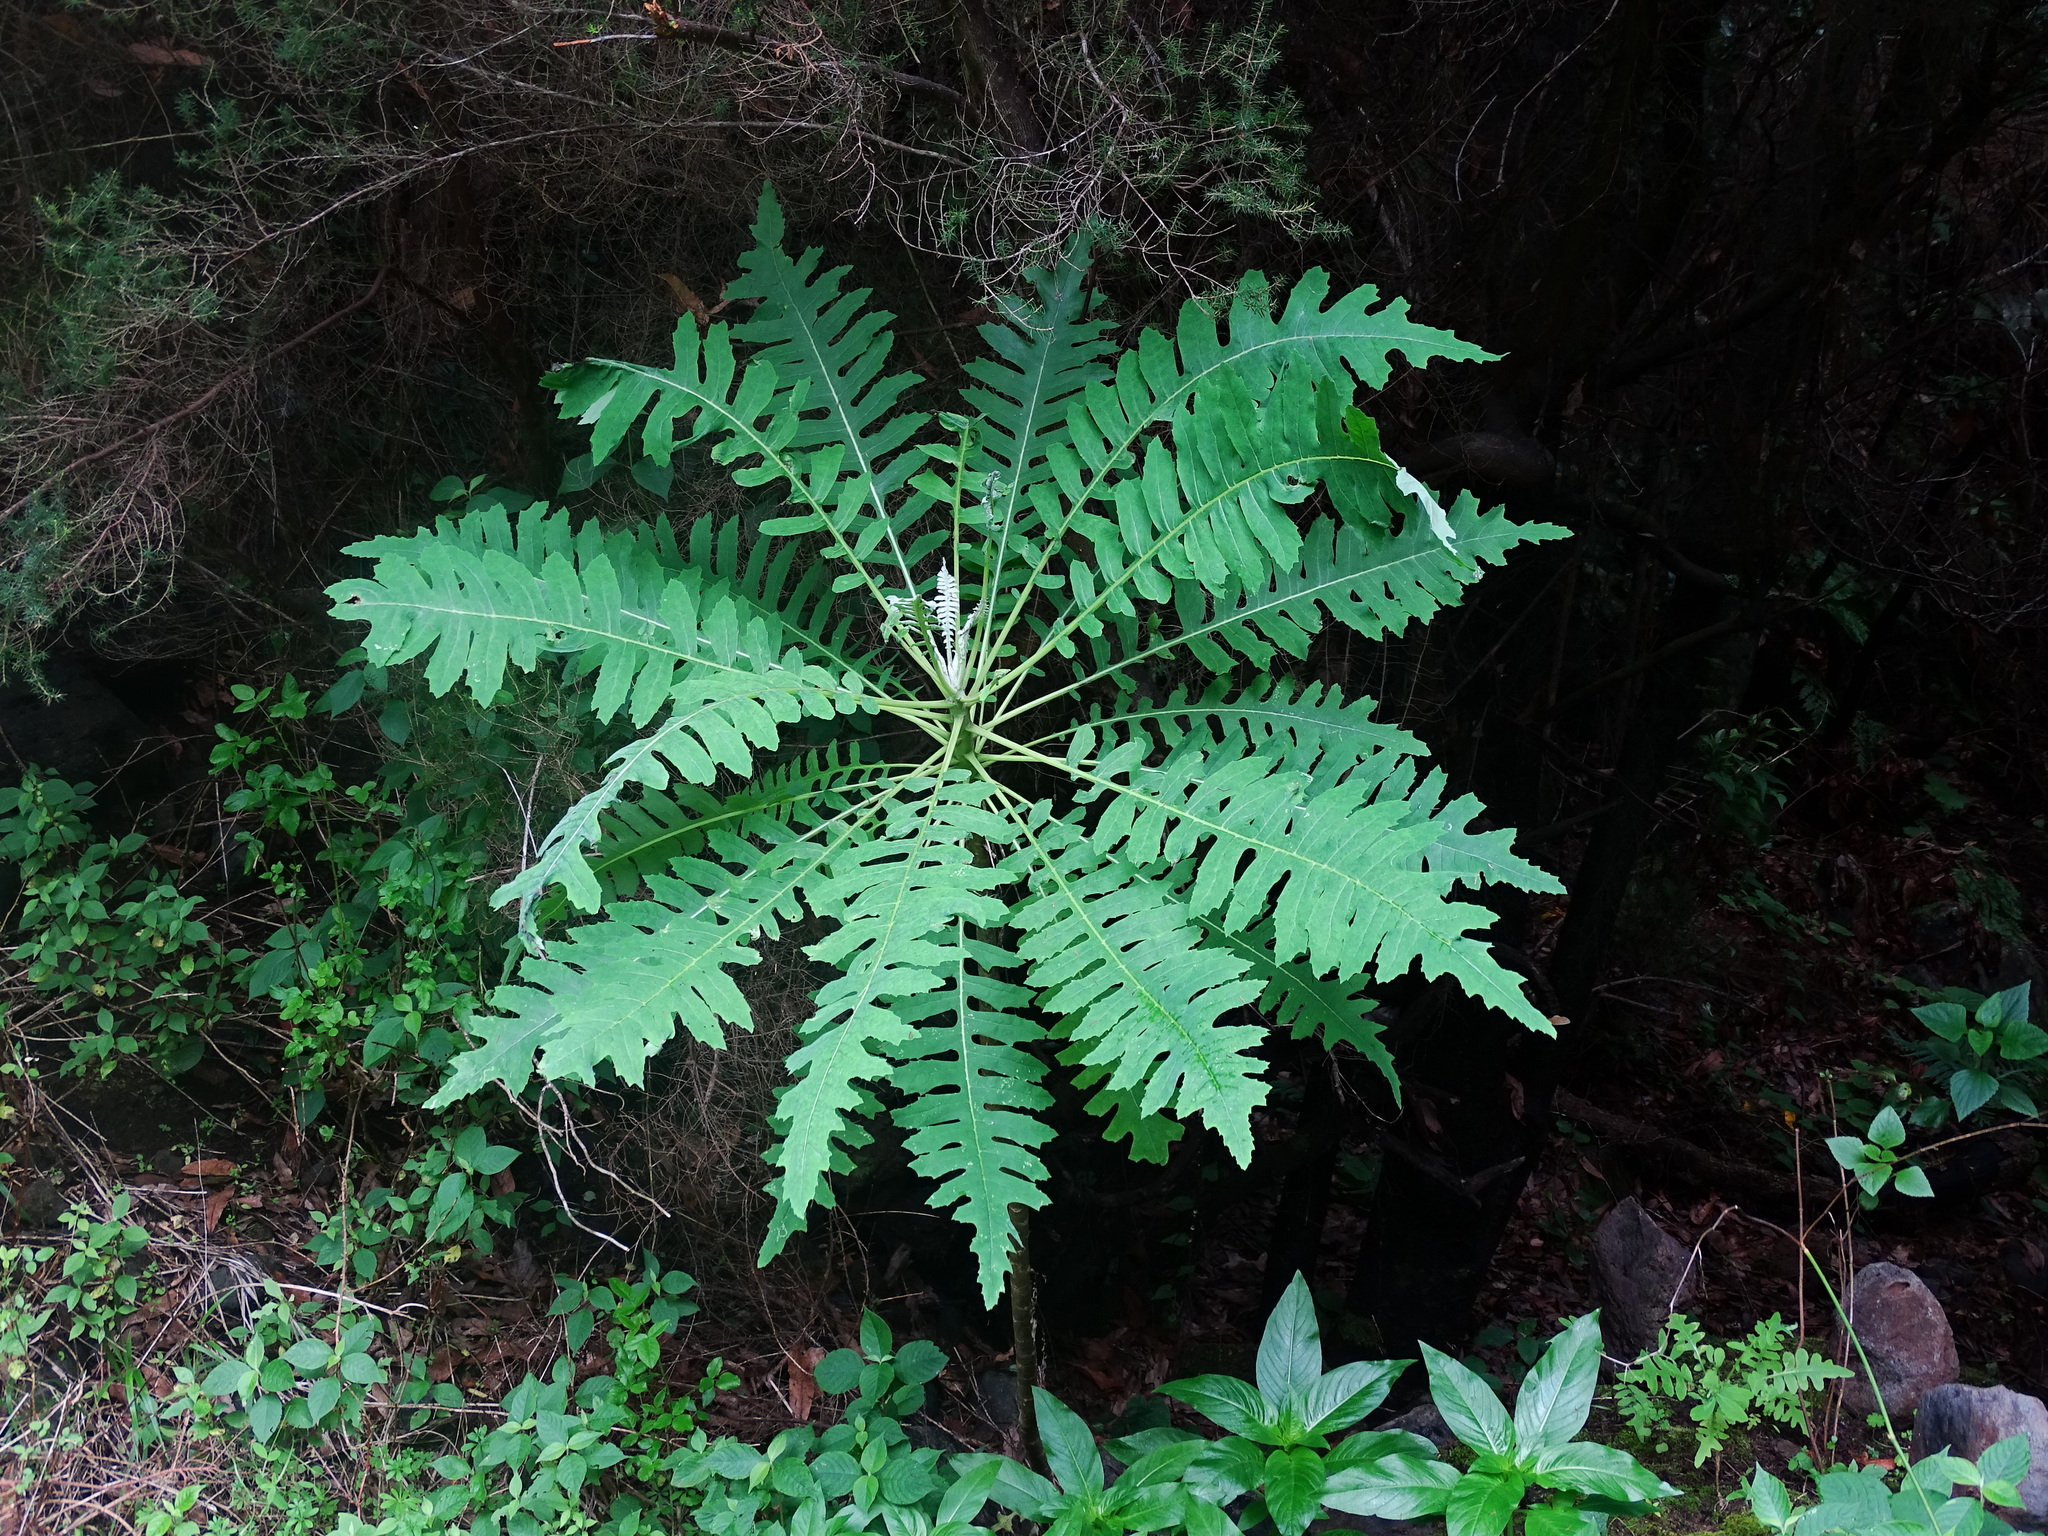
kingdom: Plantae
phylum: Tracheophyta
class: Magnoliopsida
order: Asterales
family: Asteraceae
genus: Sonchus
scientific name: Sonchus palmensis
